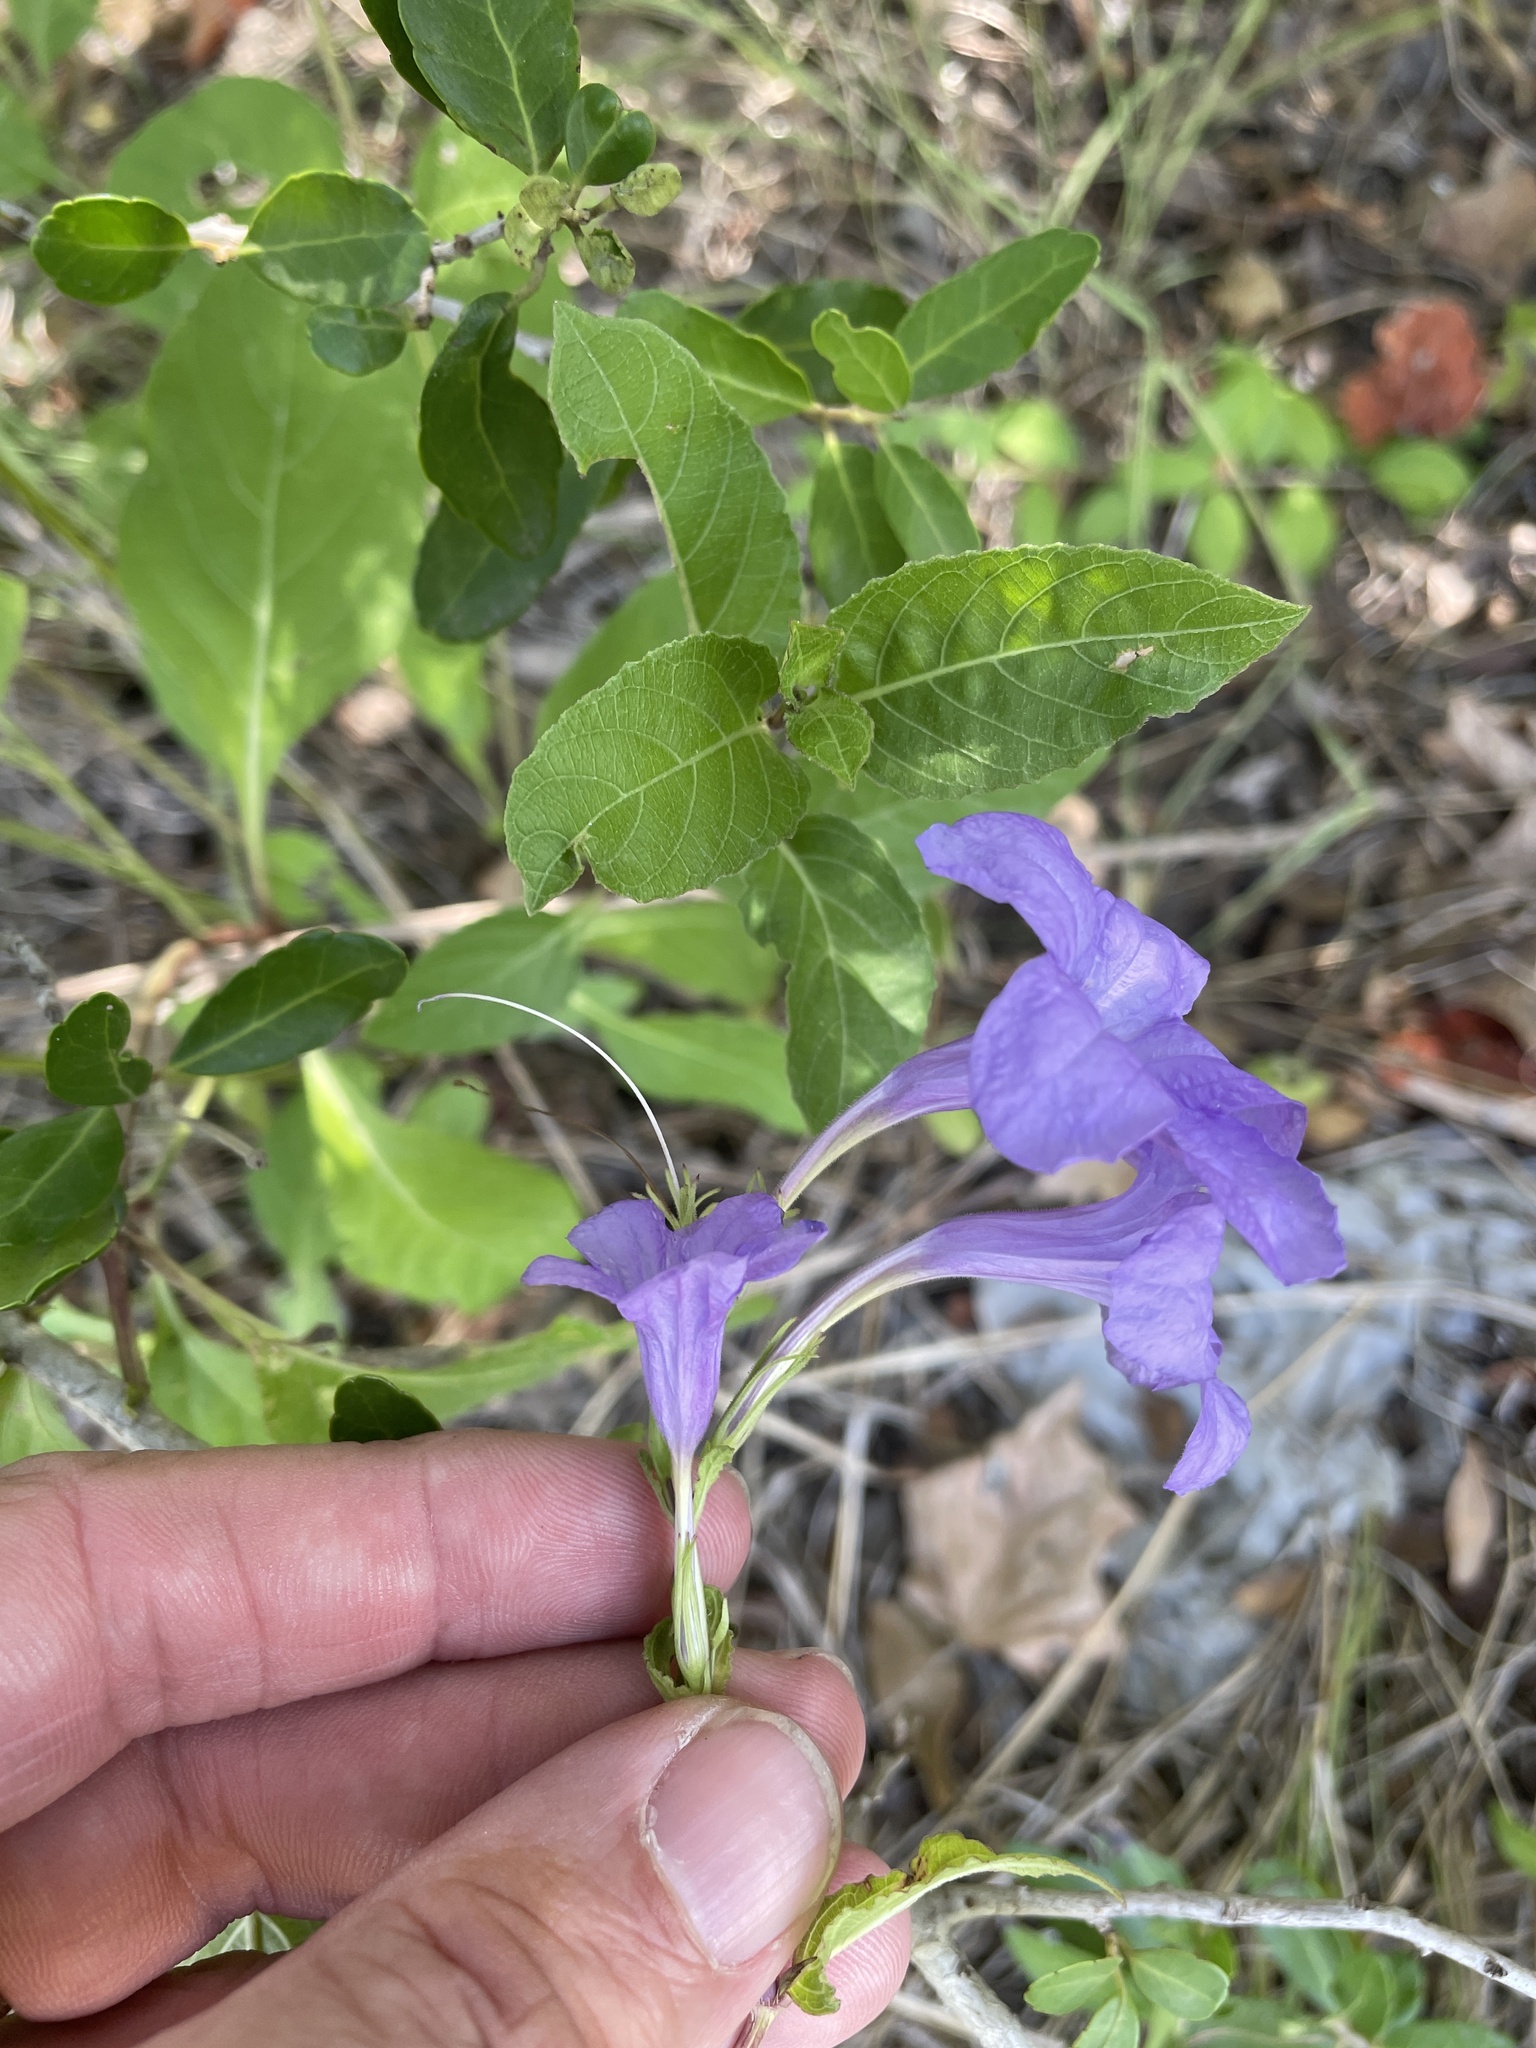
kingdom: Plantae
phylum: Tracheophyta
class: Magnoliopsida
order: Lamiales
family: Acanthaceae
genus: Ruellia
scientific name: Ruellia ciliatiflora
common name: Hairyflower wild petunia
